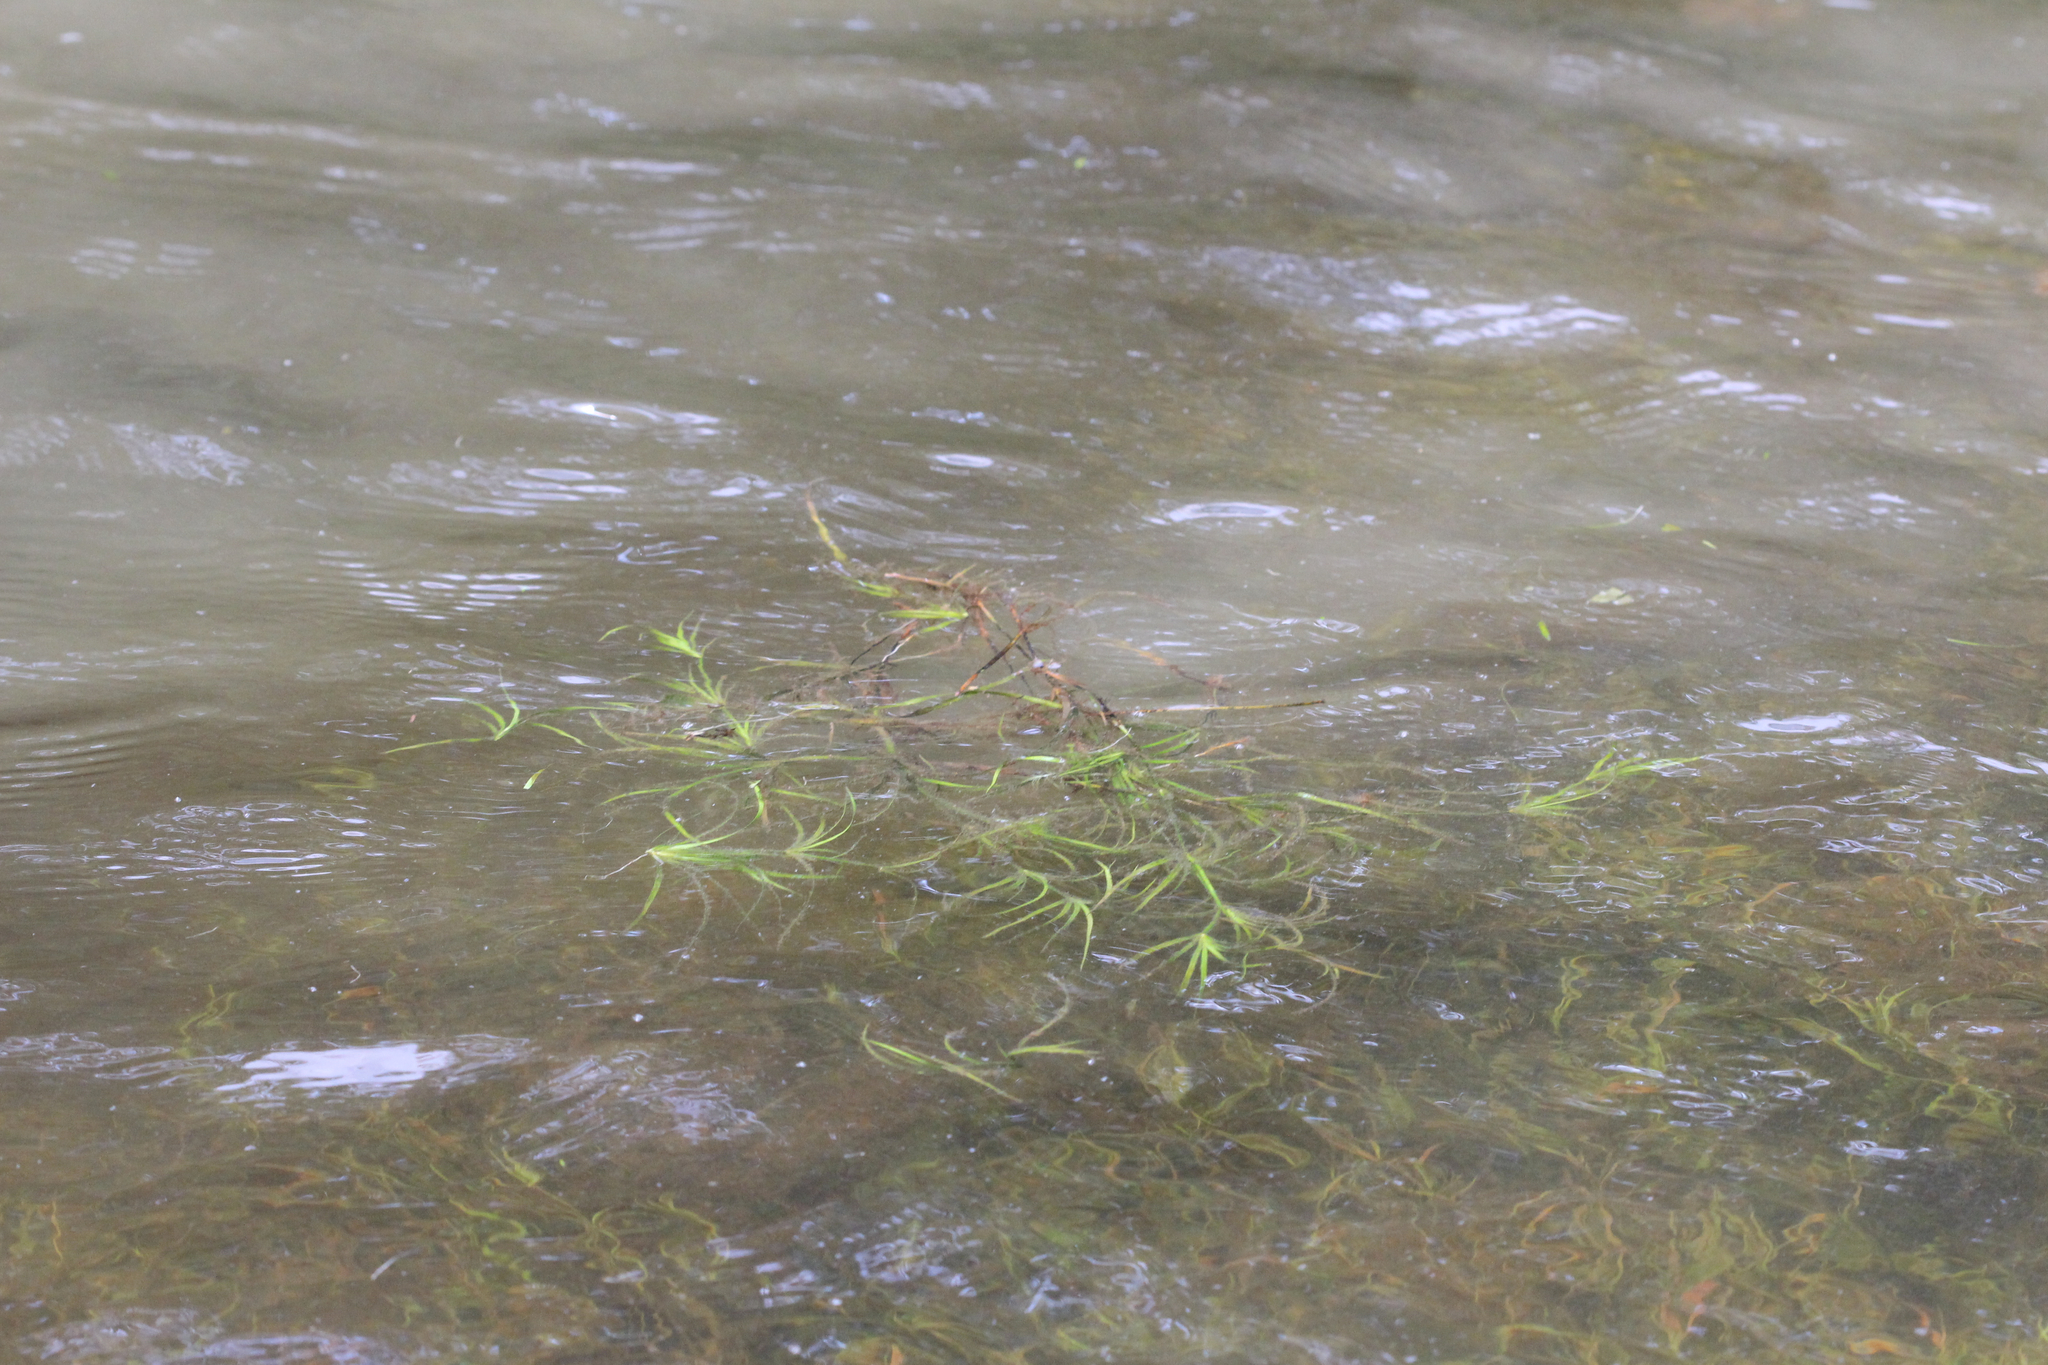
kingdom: Plantae
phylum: Tracheophyta
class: Liliopsida
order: Poales
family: Juncaceae
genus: Juncus
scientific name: Juncus repens
